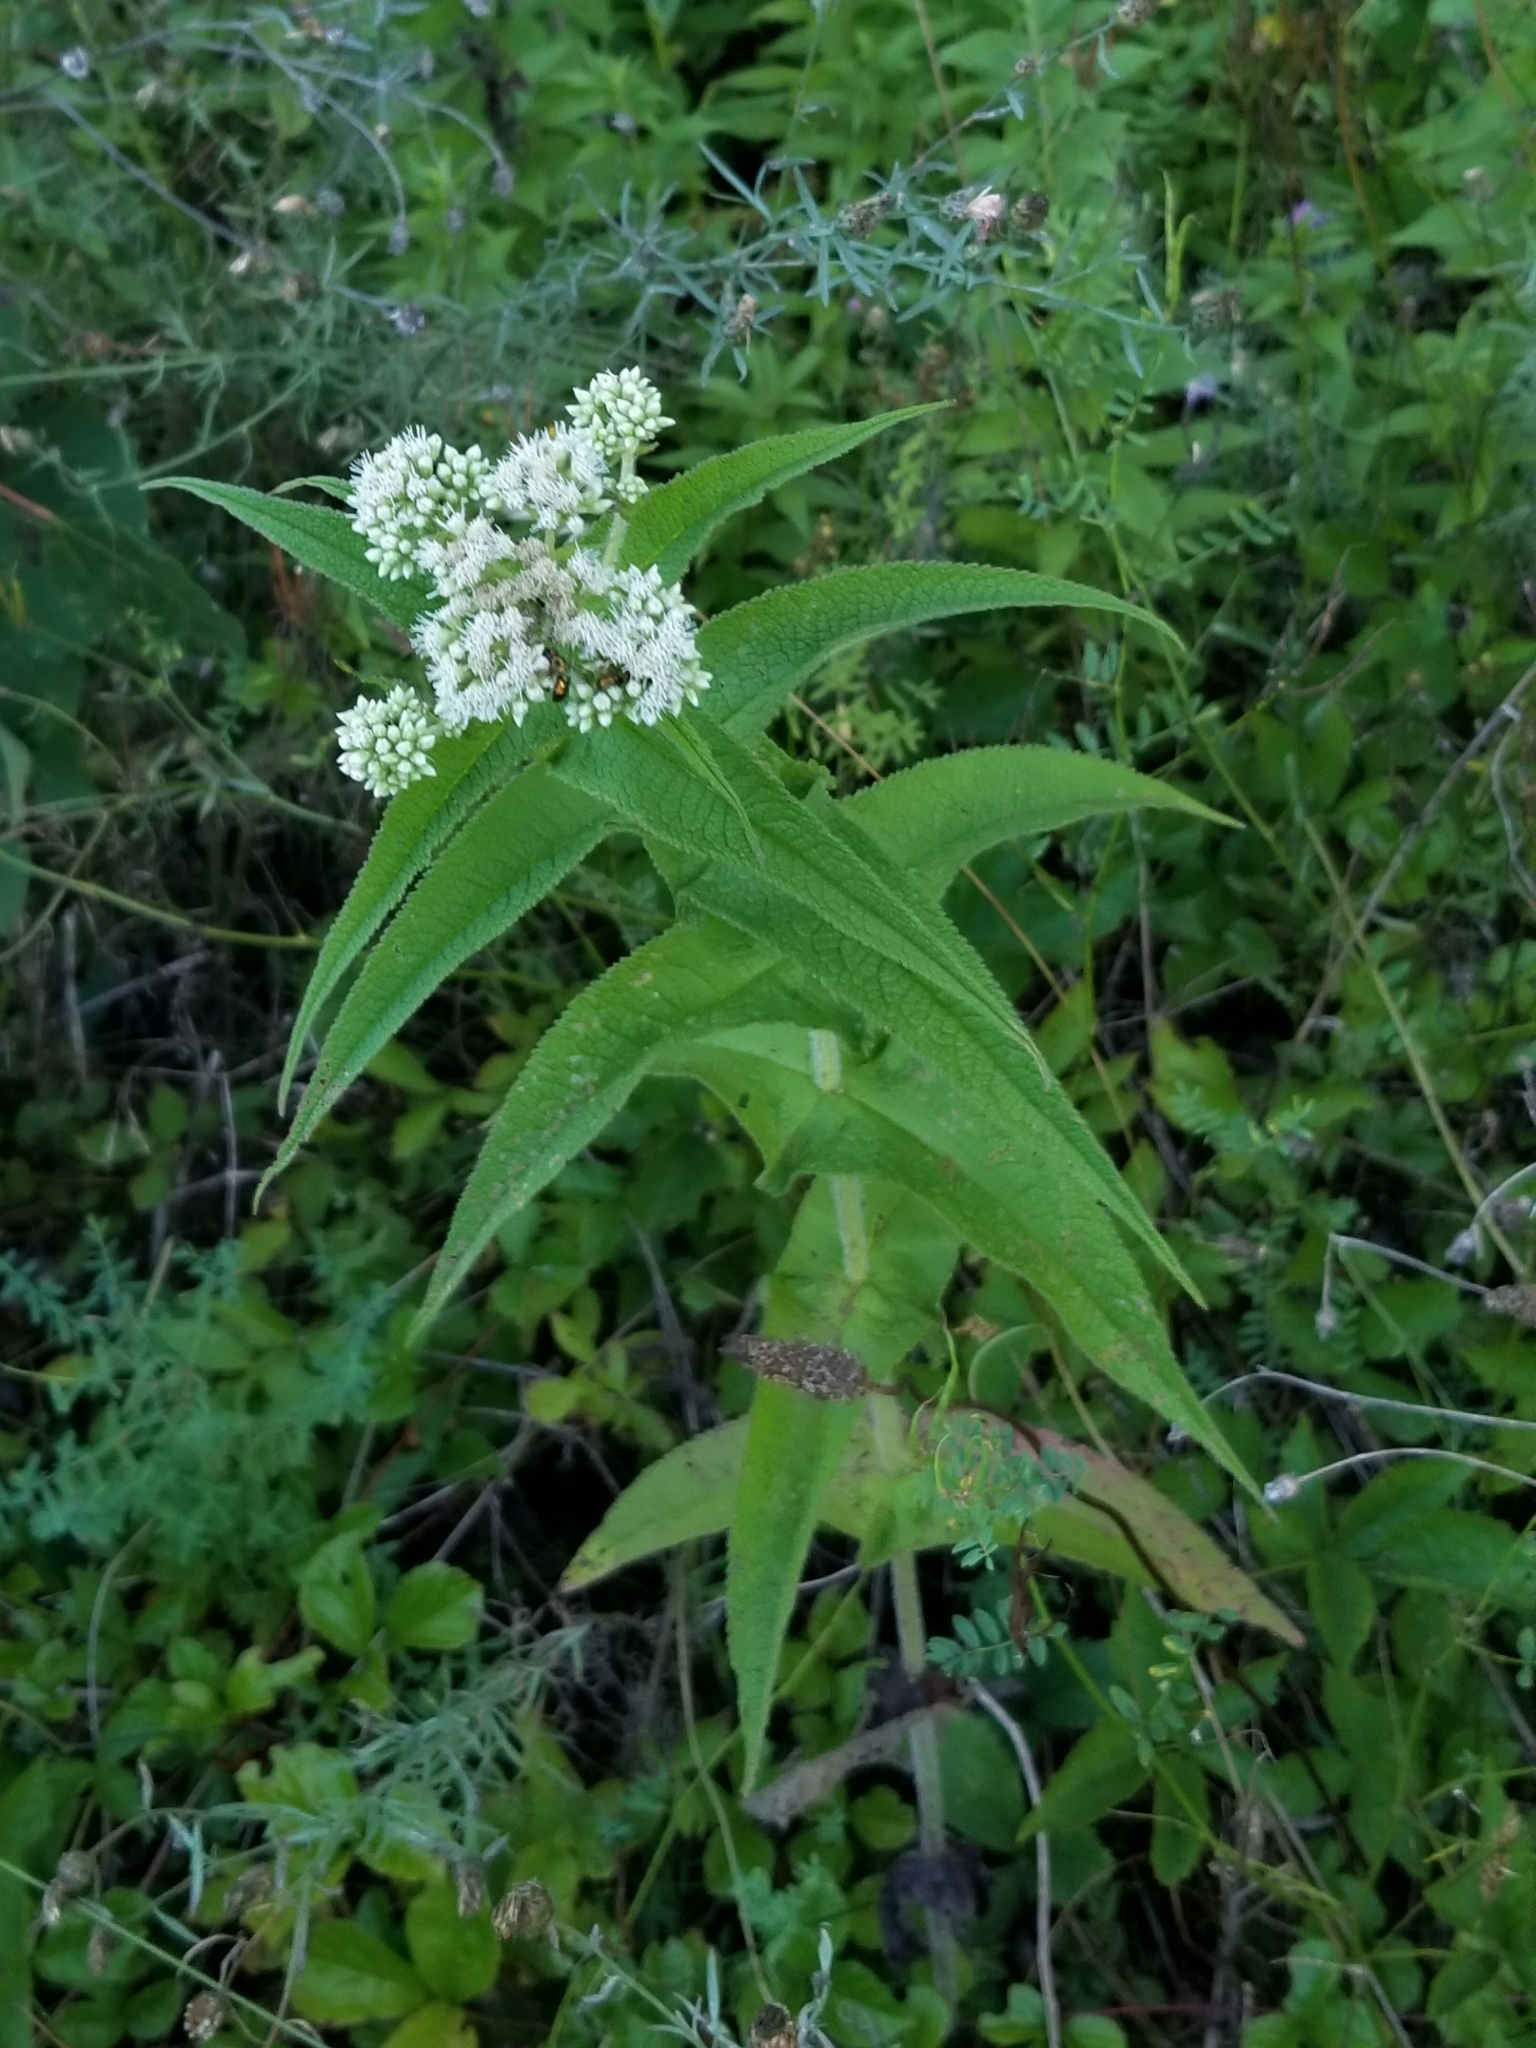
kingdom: Plantae
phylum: Tracheophyta
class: Magnoliopsida
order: Asterales
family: Asteraceae
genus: Eupatorium
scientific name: Eupatorium perfoliatum
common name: Boneset
